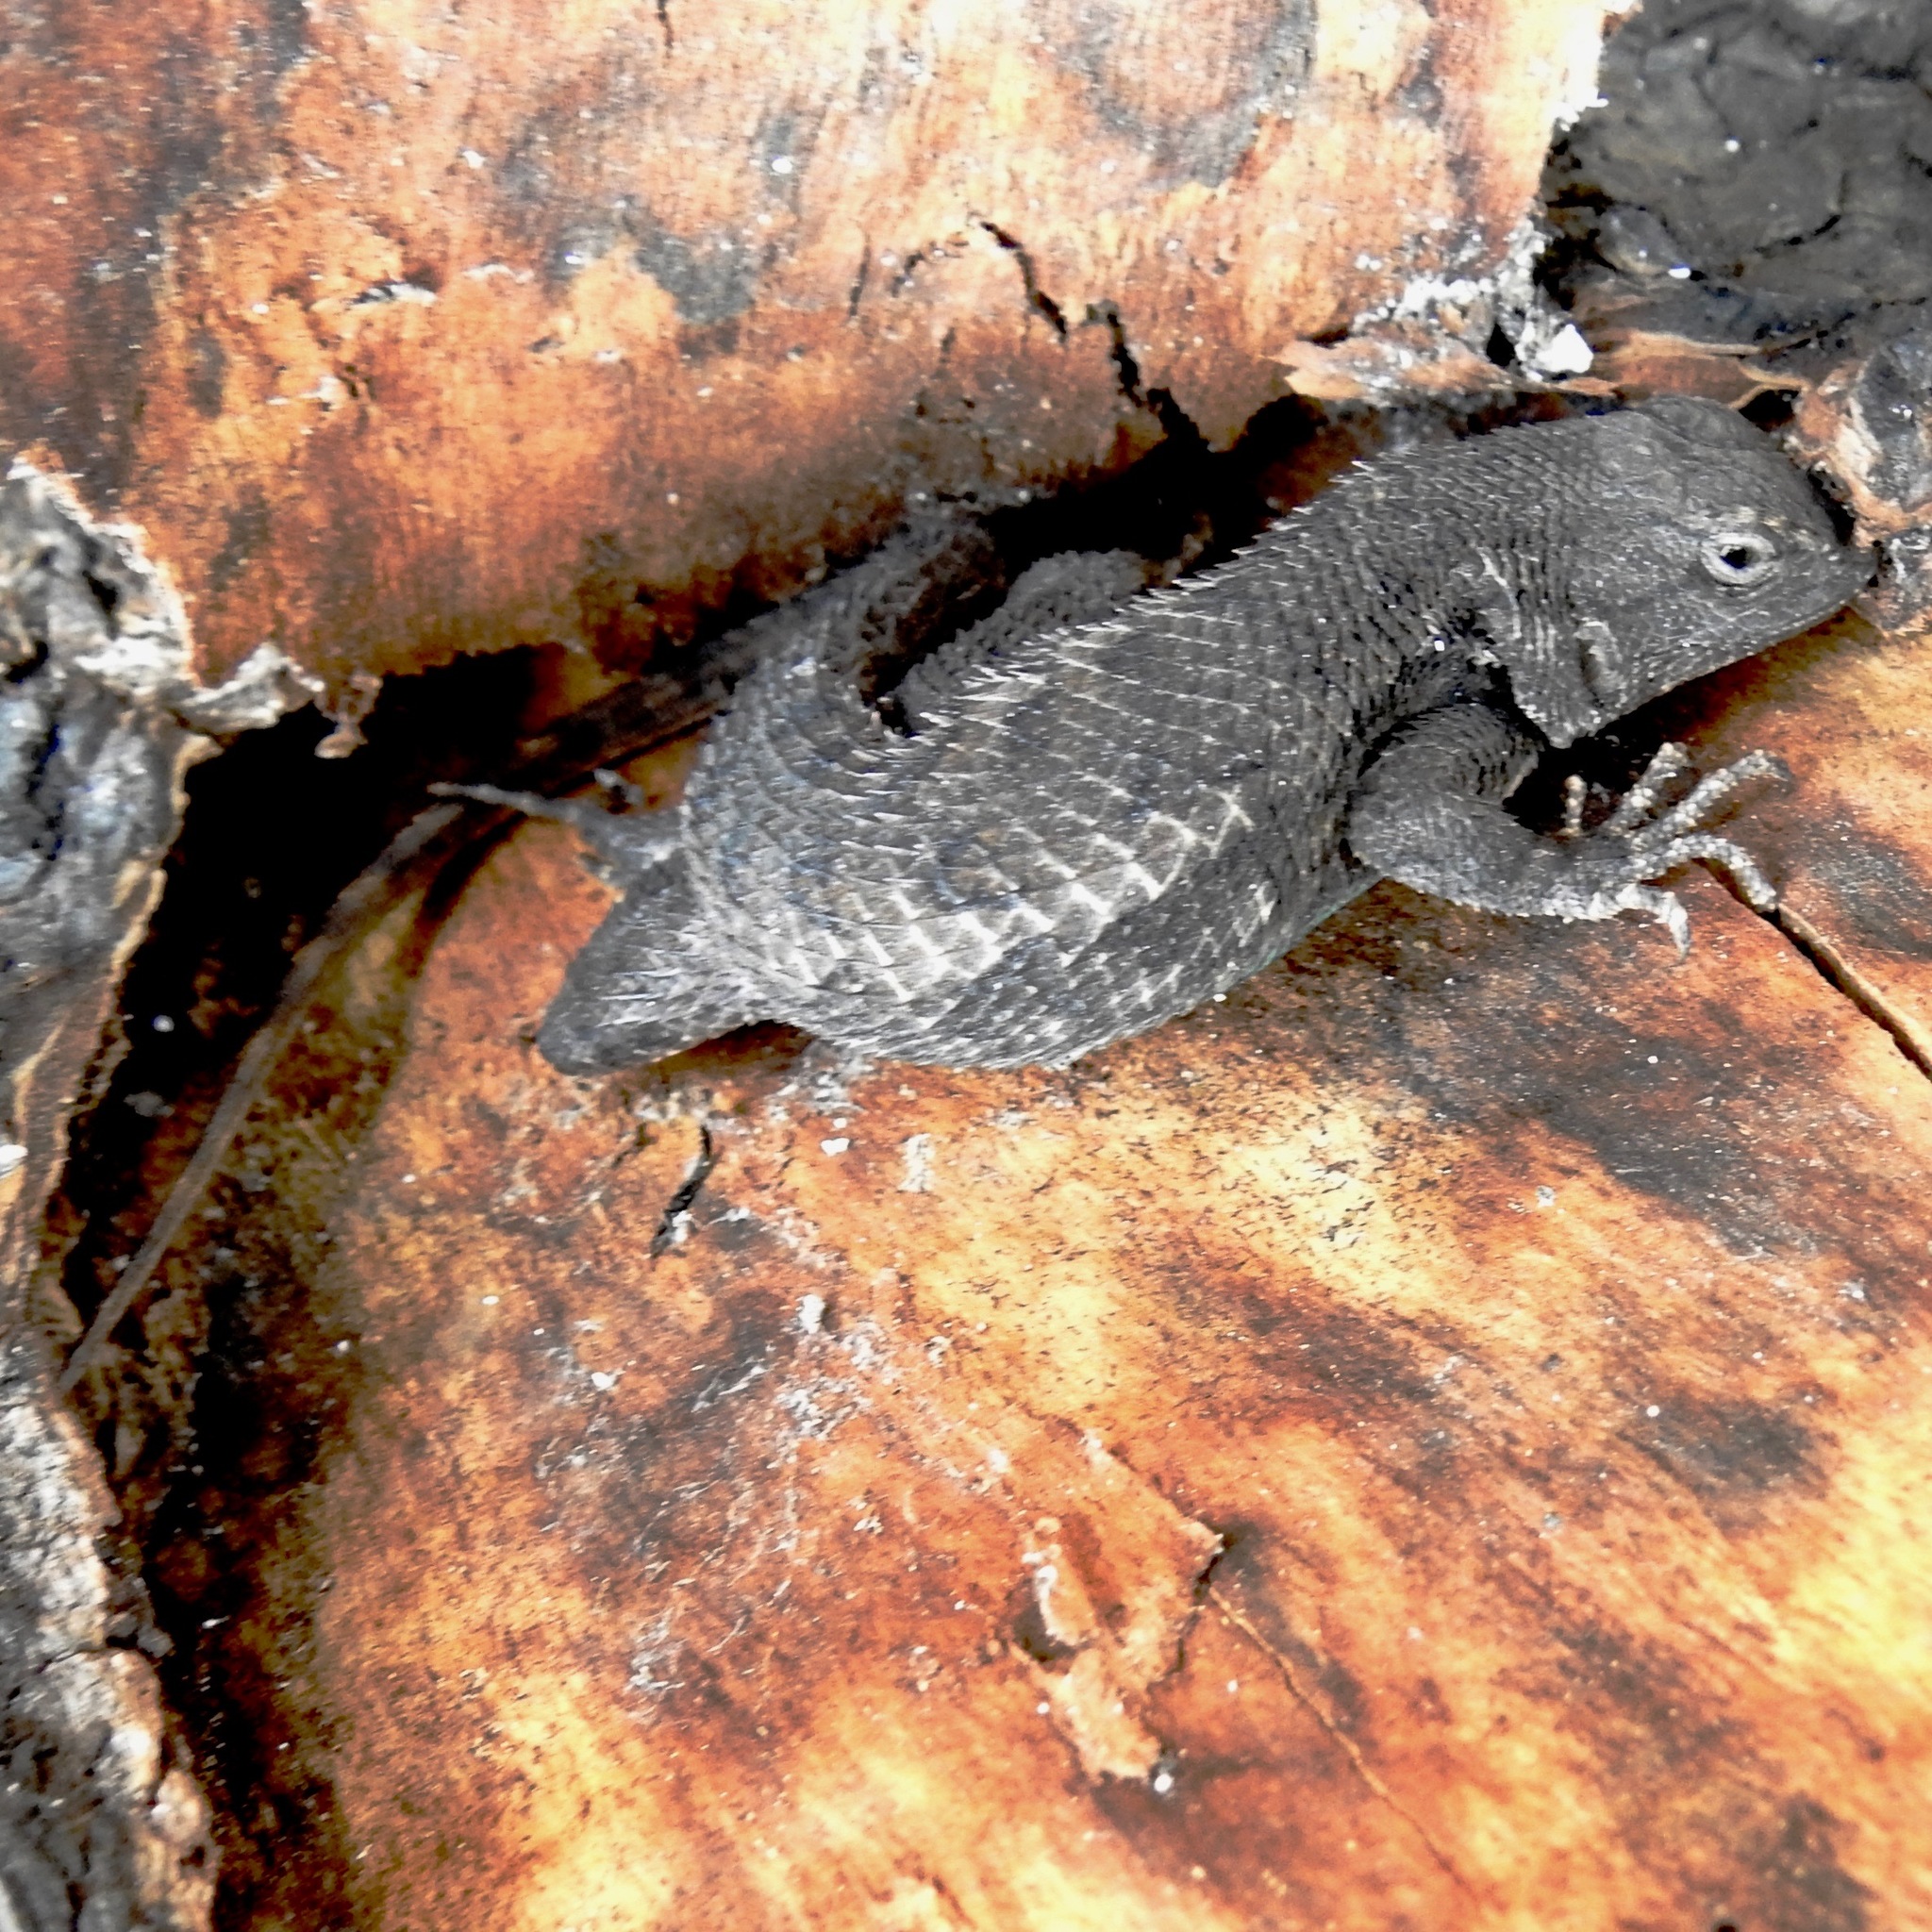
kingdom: Animalia
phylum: Chordata
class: Squamata
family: Phrynosomatidae
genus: Sceloporus
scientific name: Sceloporus occidentalis
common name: Western fence lizard
